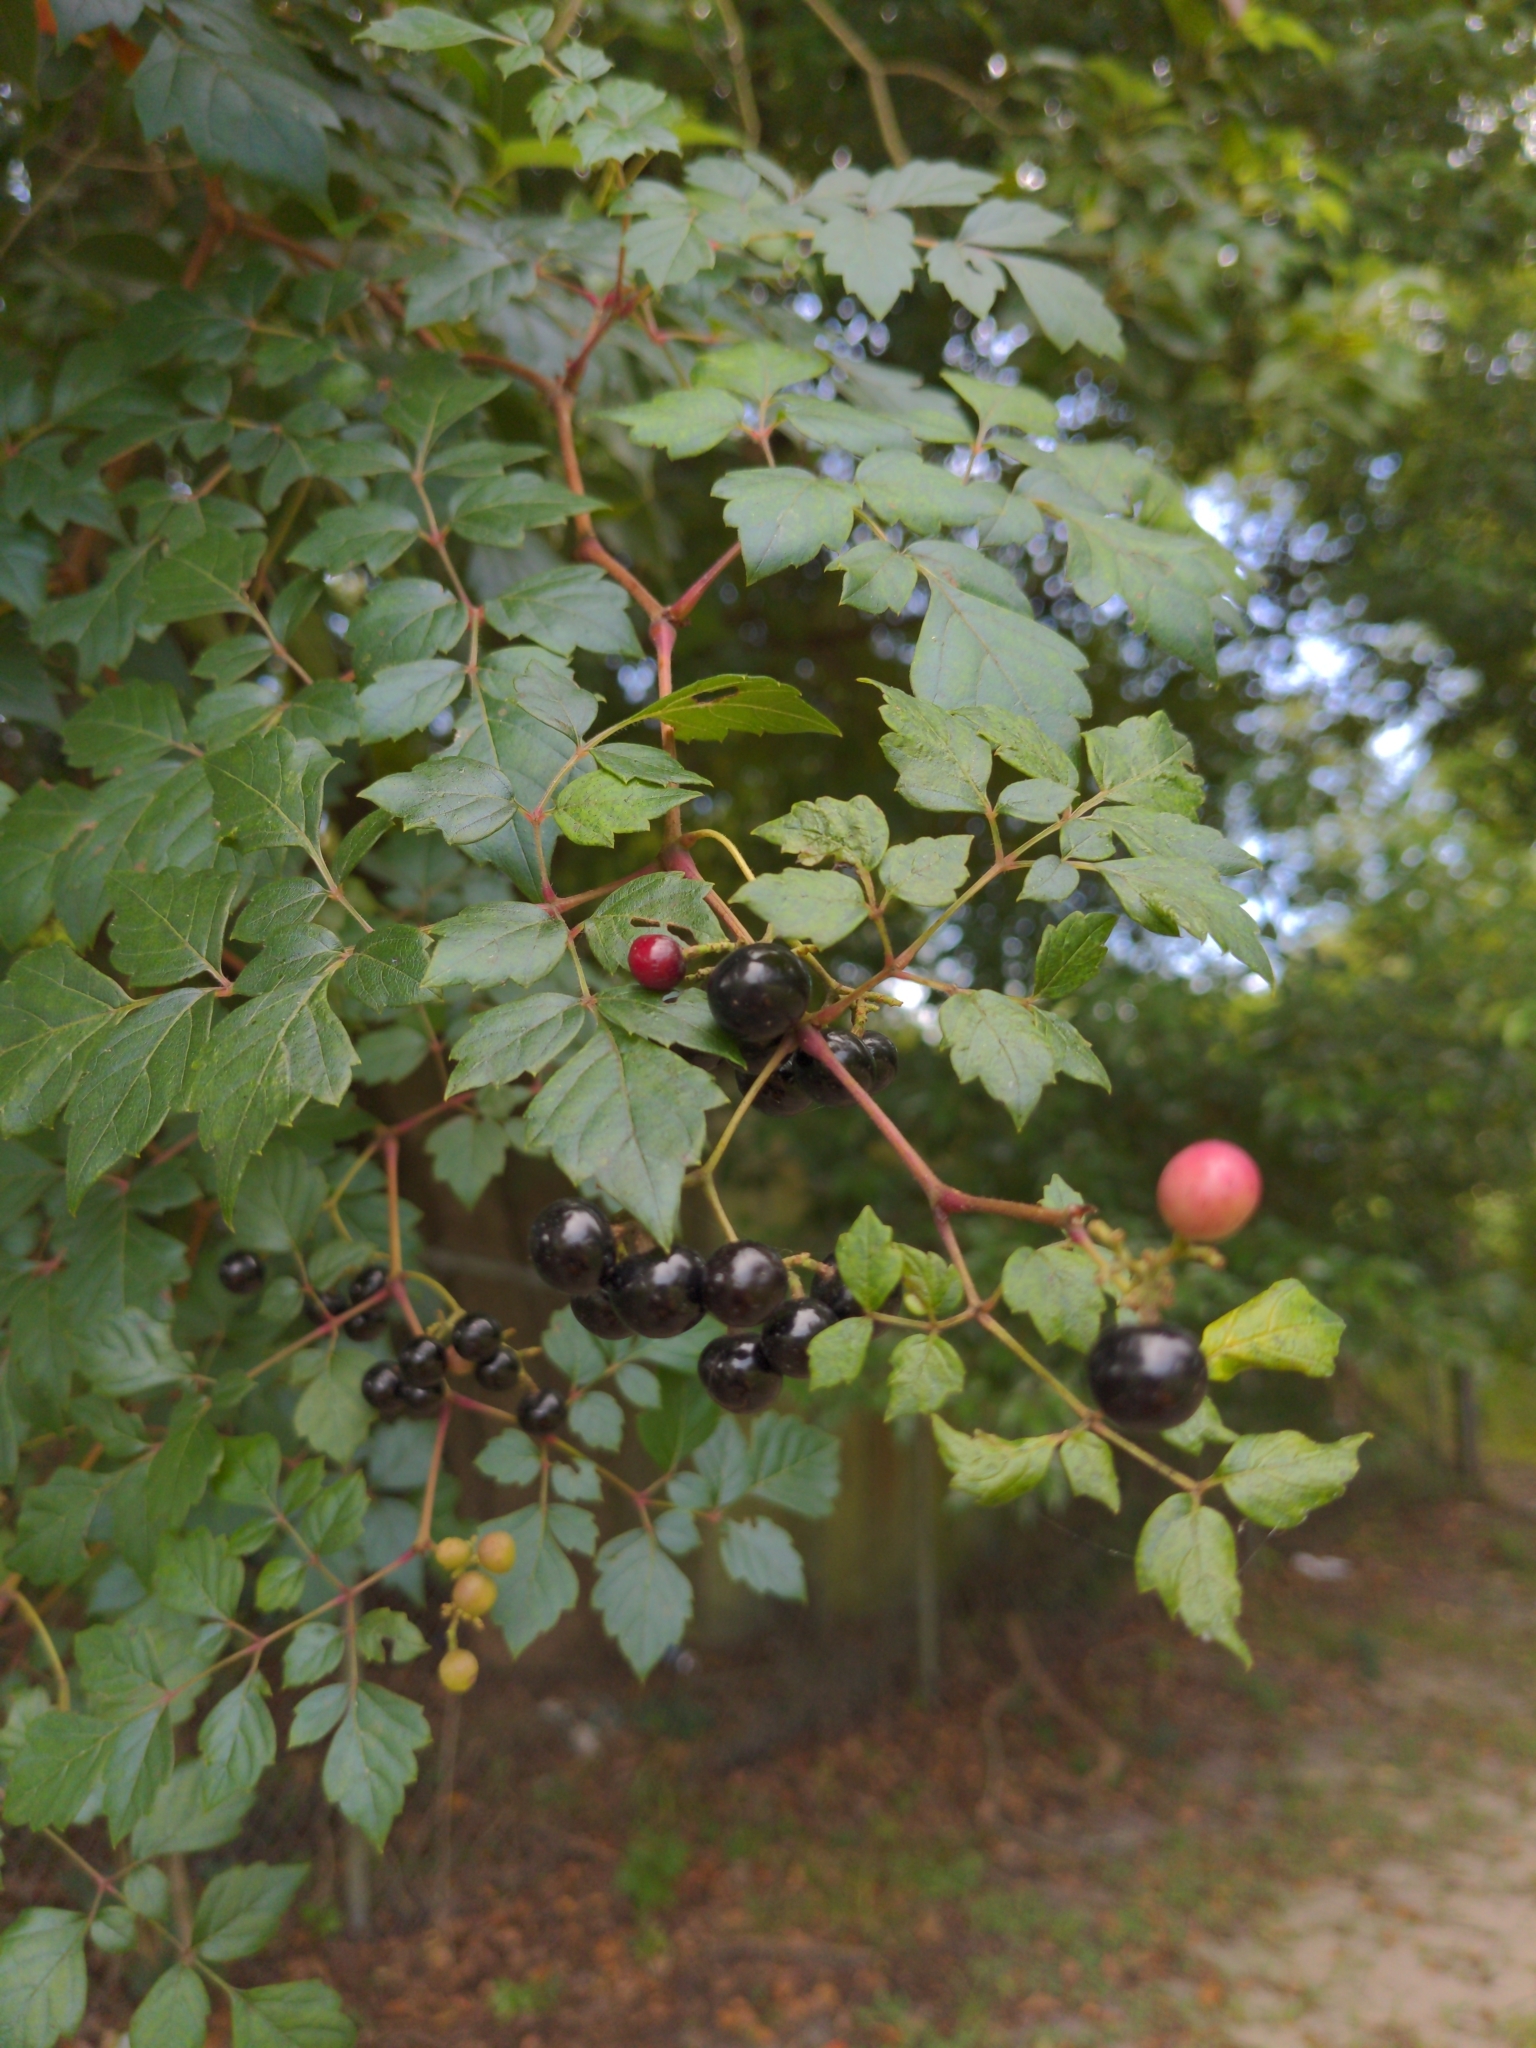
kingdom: Plantae
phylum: Tracheophyta
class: Magnoliopsida
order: Vitales
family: Vitaceae
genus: Nekemias
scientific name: Nekemias arborea
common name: Peppervine
